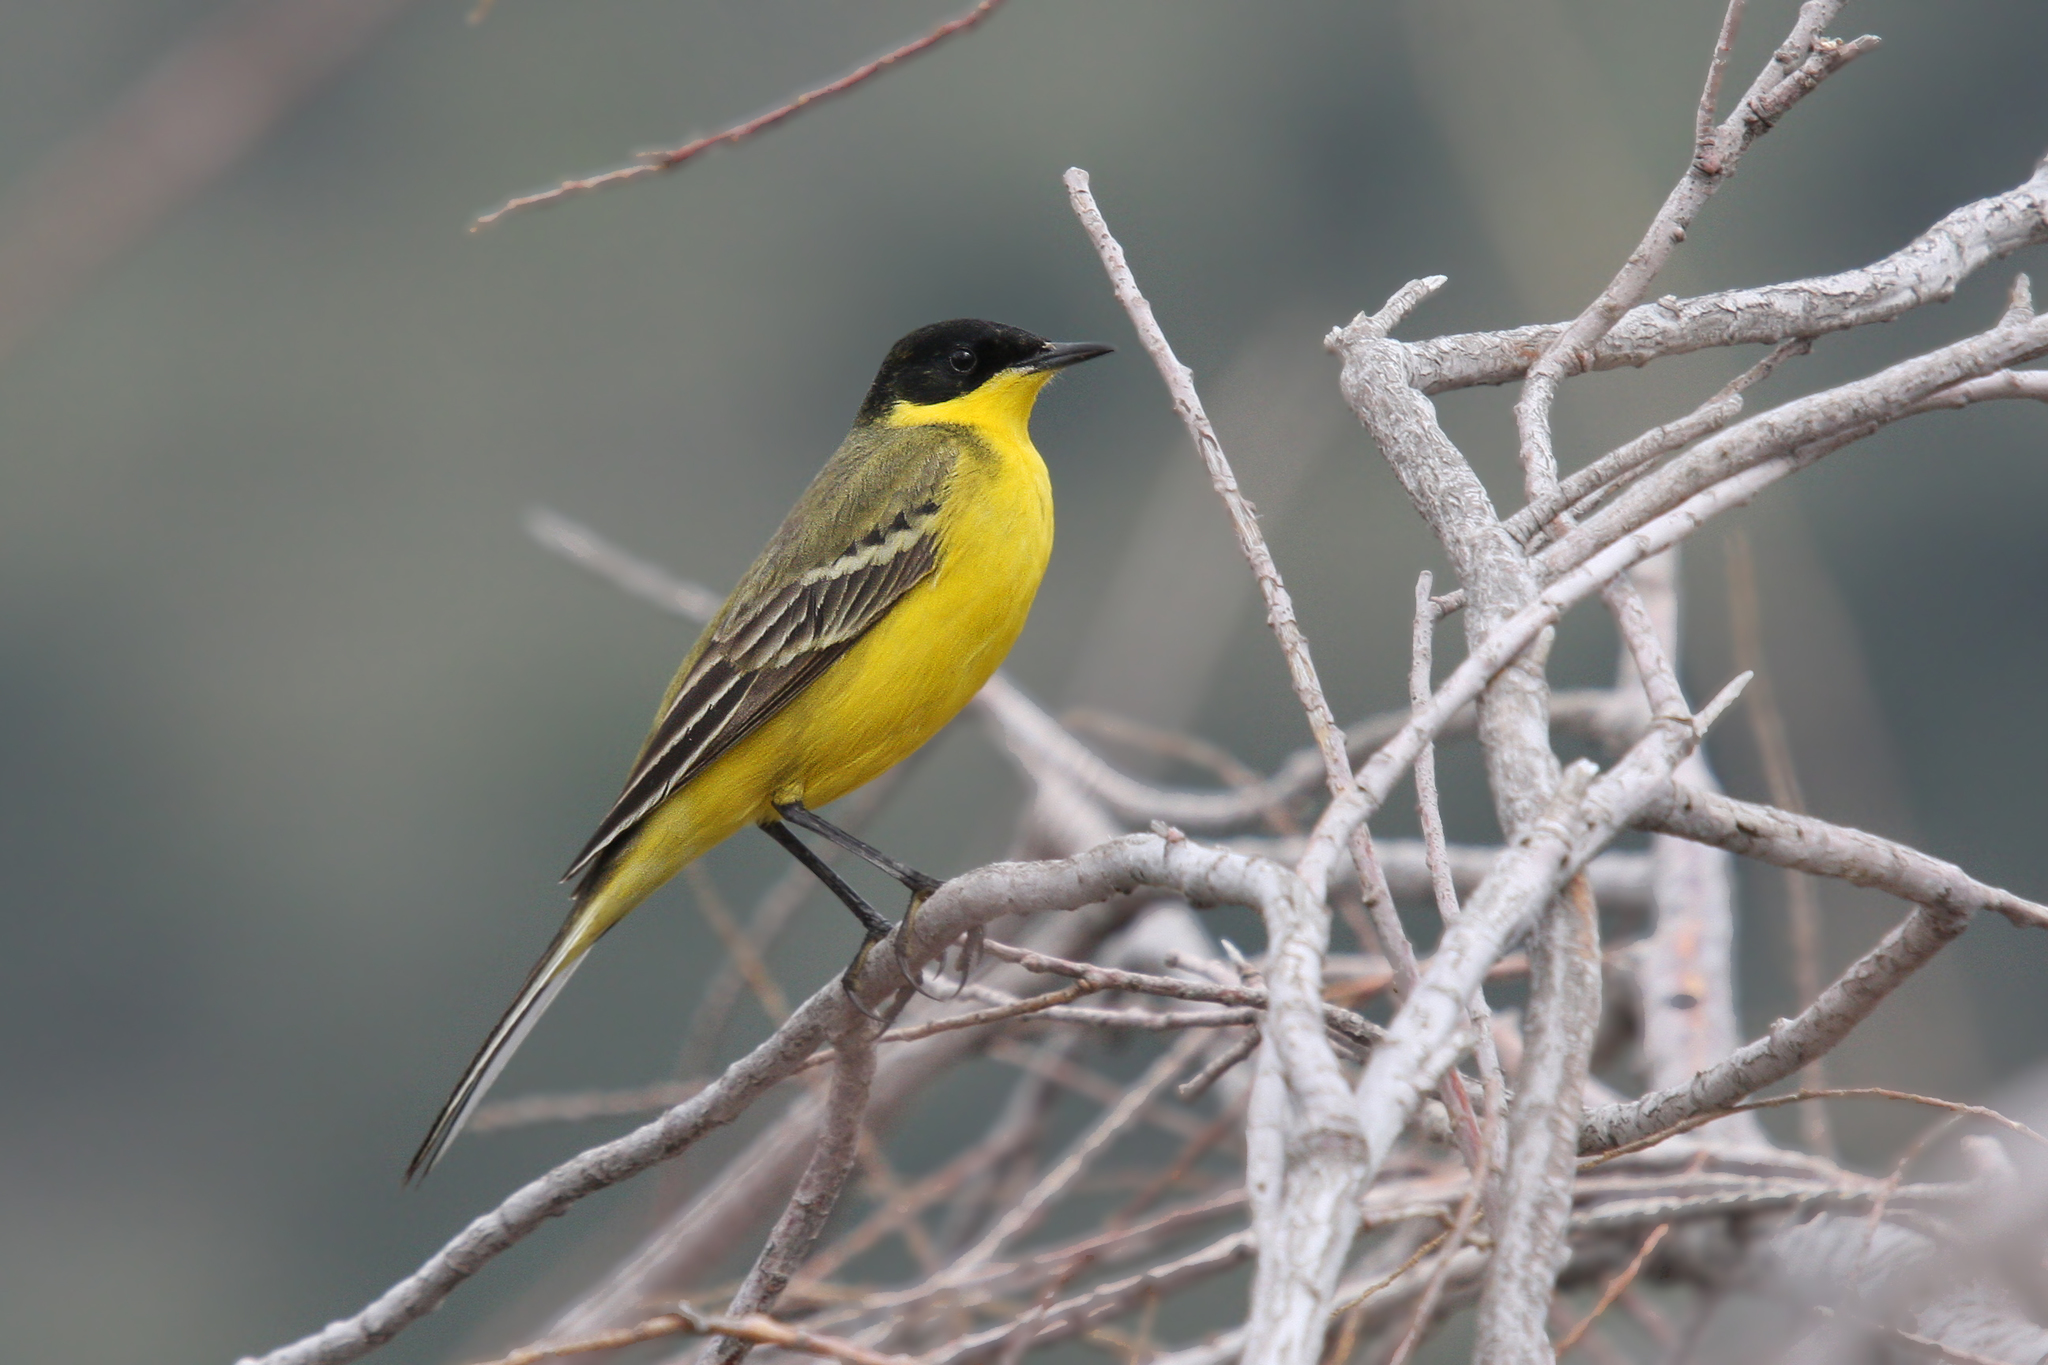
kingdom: Animalia
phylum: Chordata
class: Aves
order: Passeriformes
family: Motacillidae
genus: Motacilla
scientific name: Motacilla flava
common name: Western yellow wagtail
